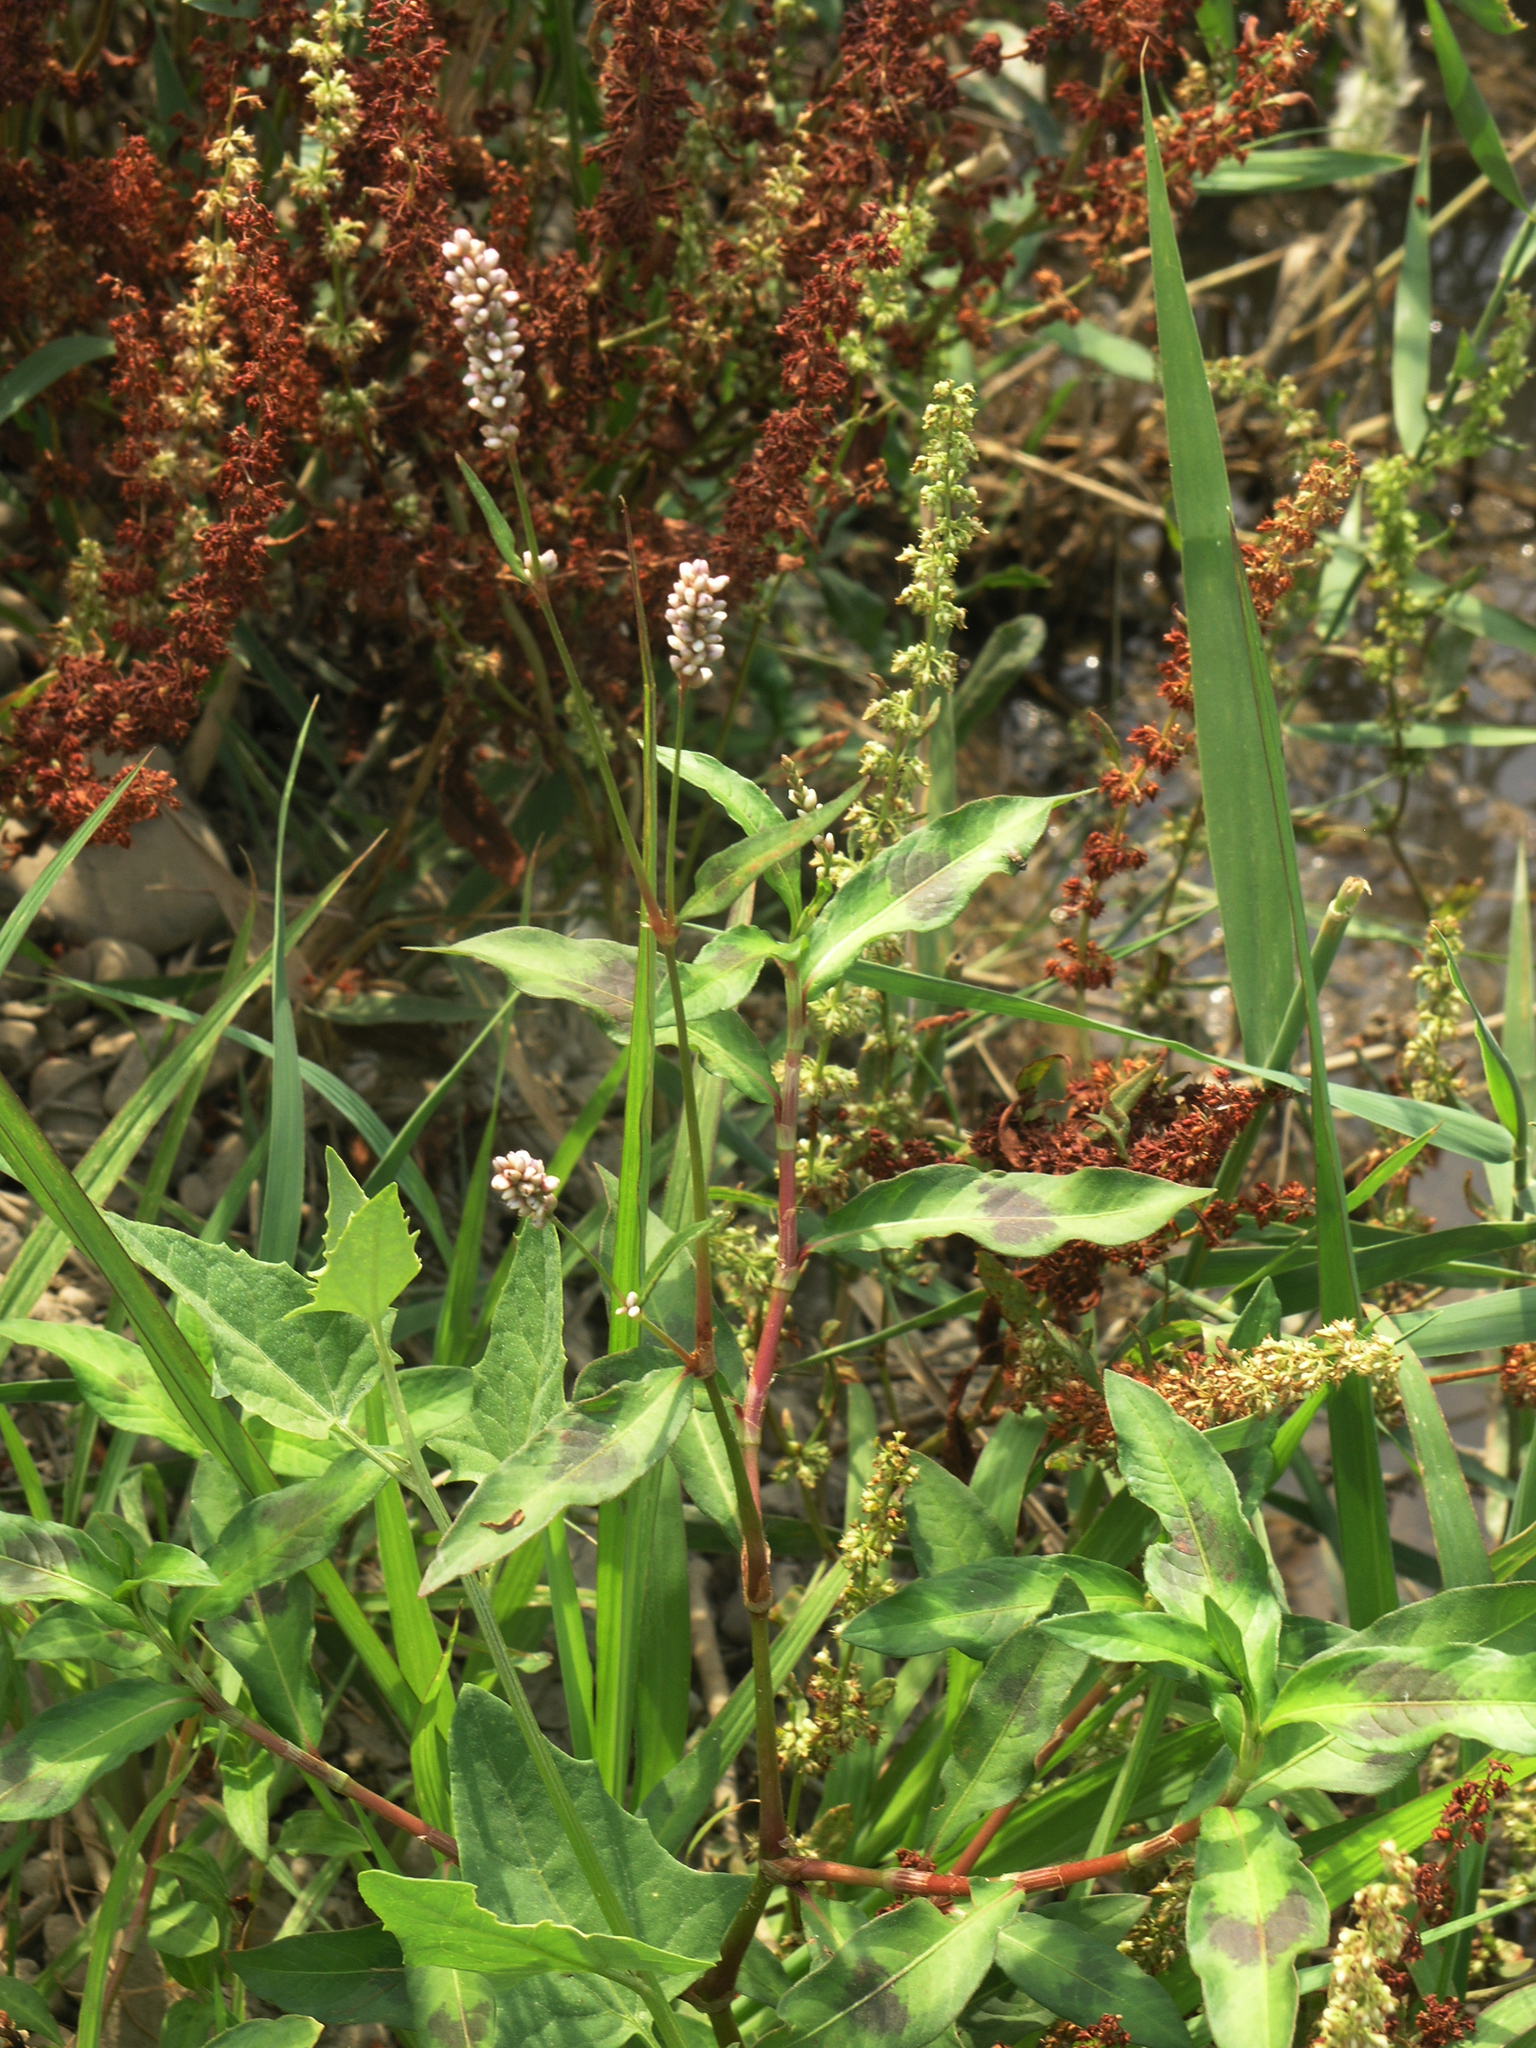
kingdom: Plantae
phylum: Tracheophyta
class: Magnoliopsida
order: Caryophyllales
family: Polygonaceae
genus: Persicaria
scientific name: Persicaria maculosa
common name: Redshank
